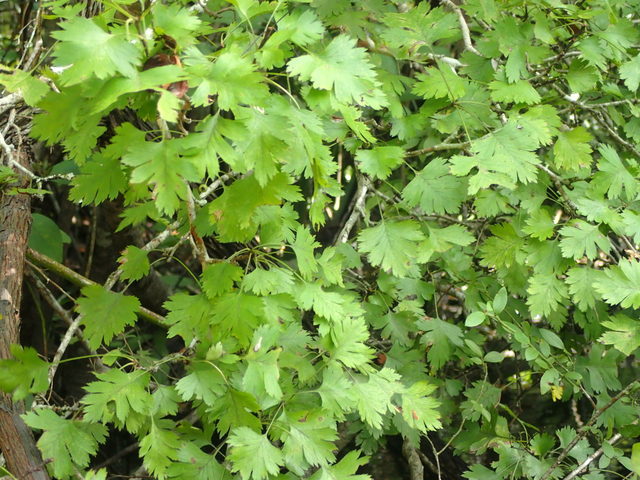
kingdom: Plantae
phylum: Tracheophyta
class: Magnoliopsida
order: Rosales
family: Rosaceae
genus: Crataegus
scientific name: Crataegus marshallii
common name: Parsley-hawthorn
